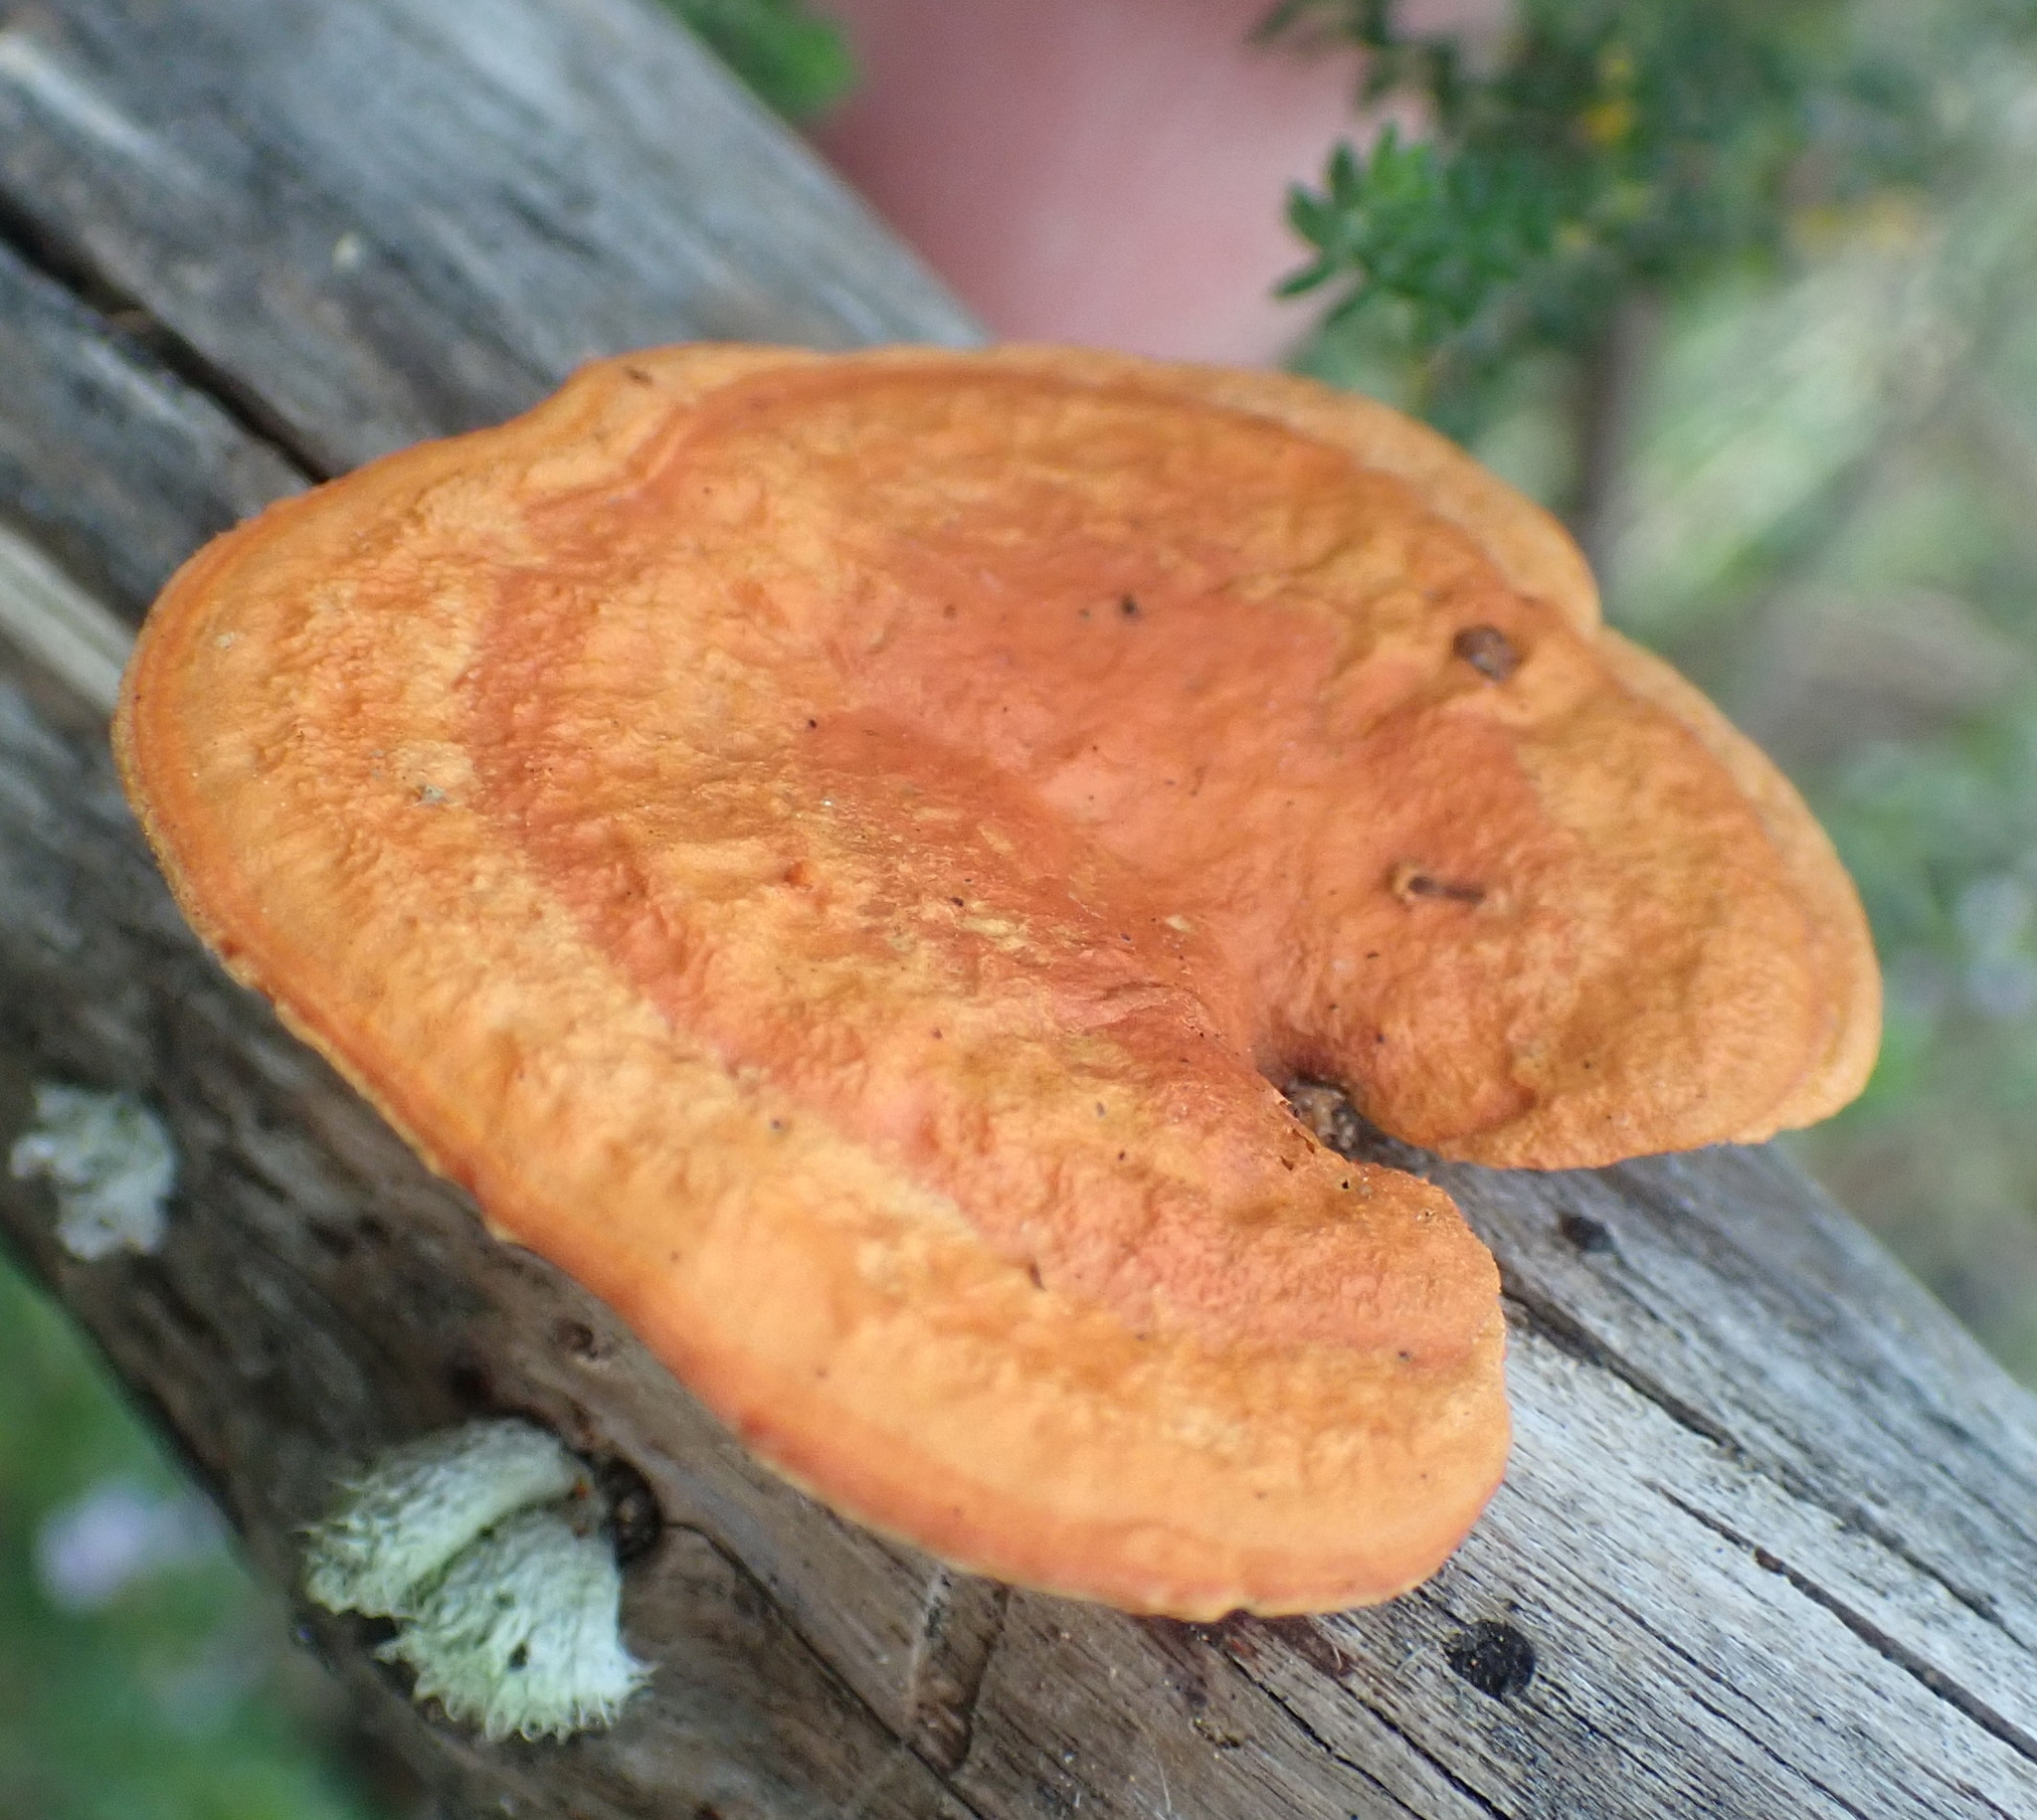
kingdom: Fungi
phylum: Basidiomycota
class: Agaricomycetes
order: Polyporales
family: Polyporaceae
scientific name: Polyporaceae
